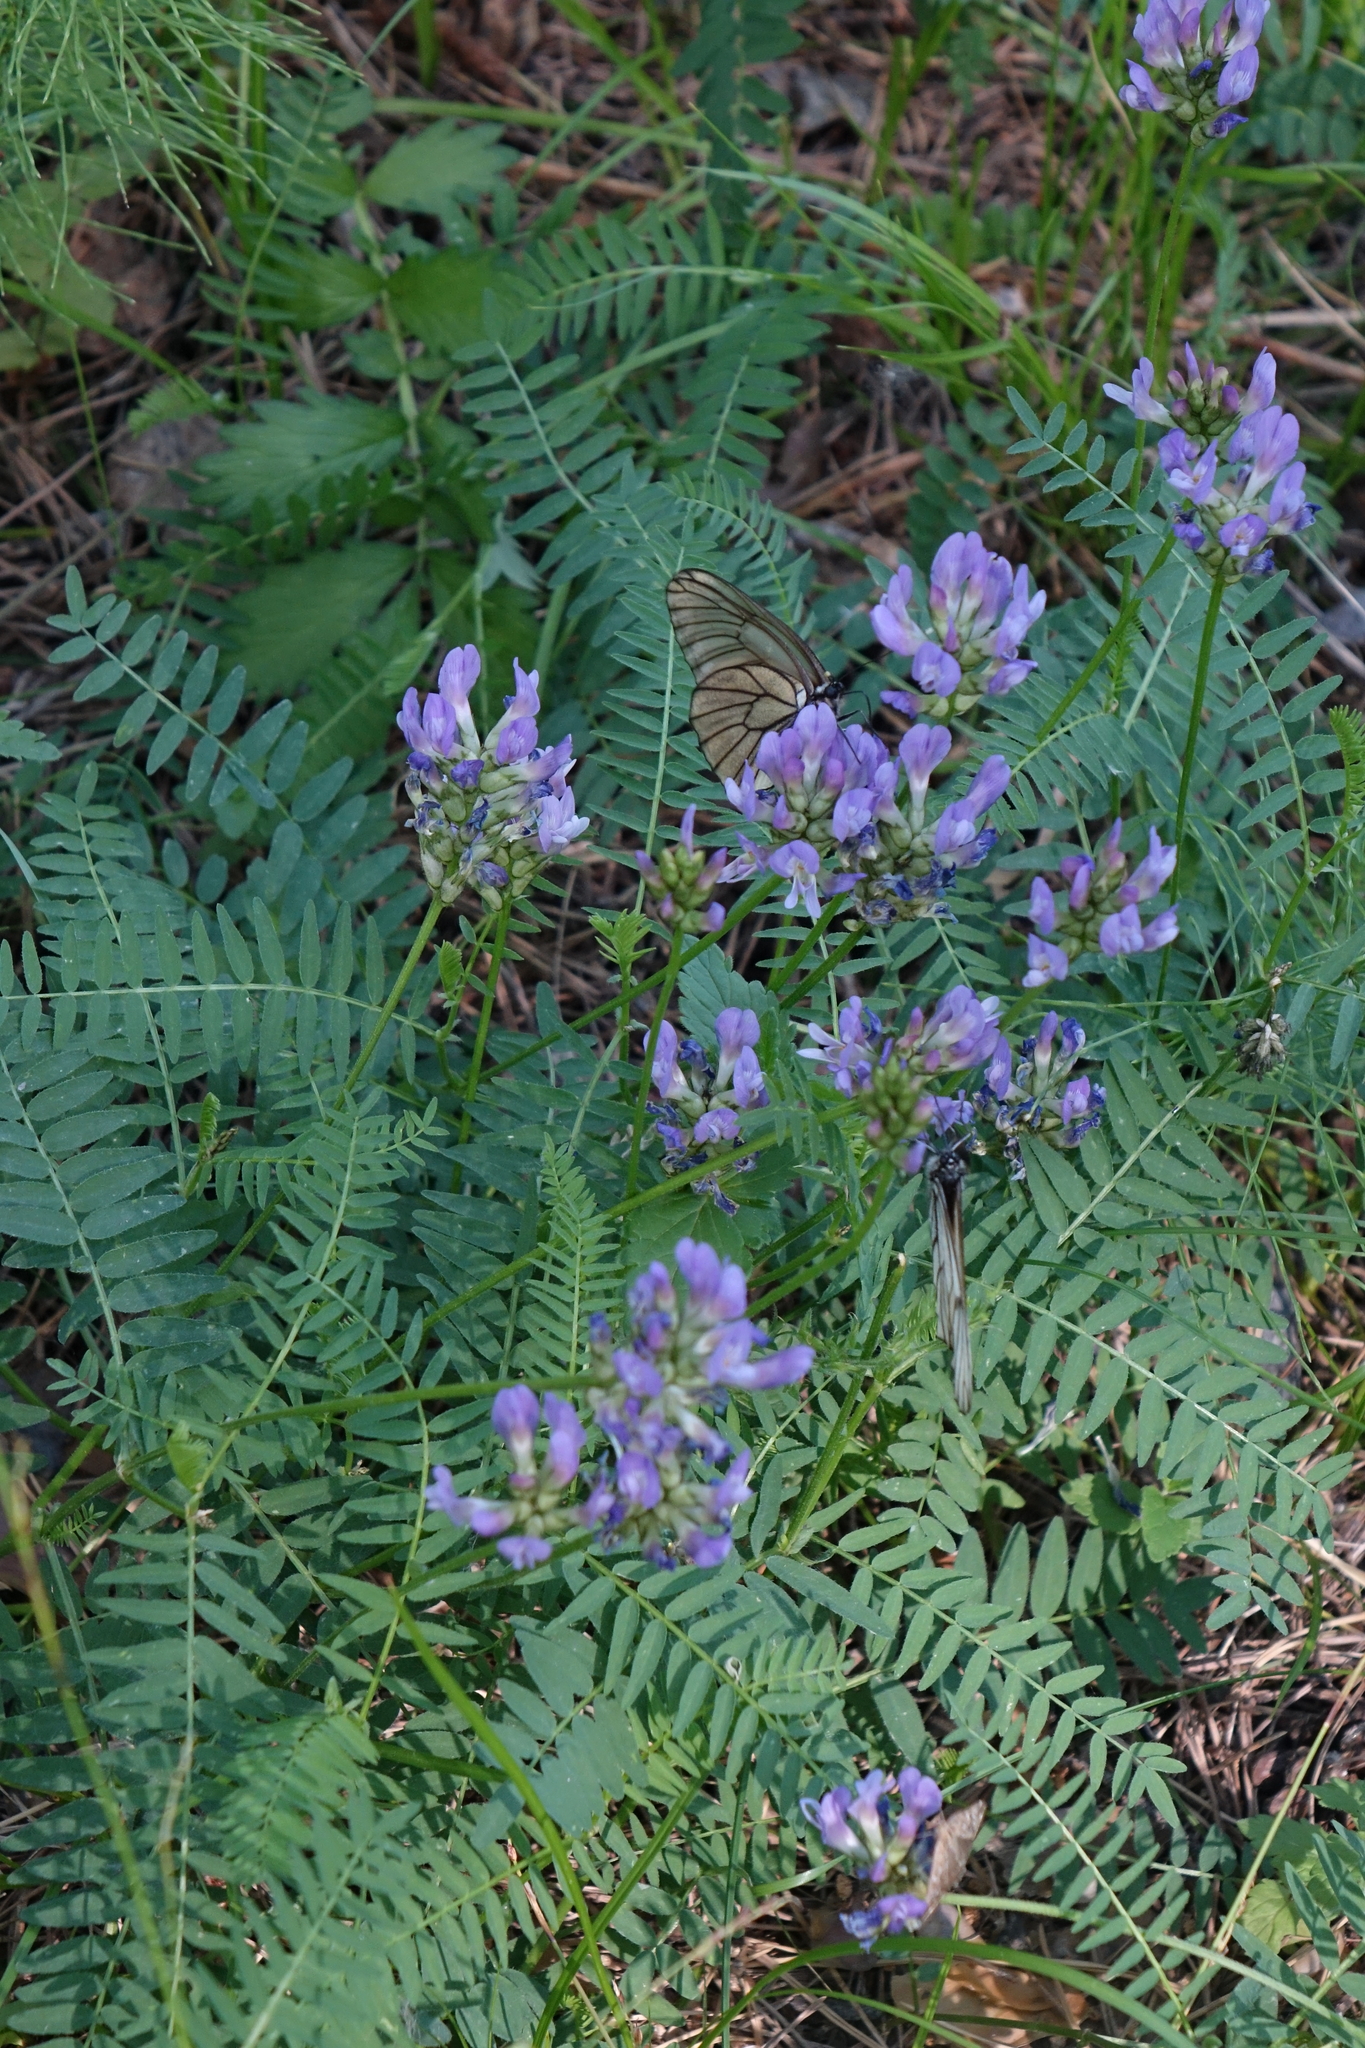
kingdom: Animalia
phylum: Arthropoda
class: Insecta
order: Lepidoptera
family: Pieridae
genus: Aporia
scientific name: Aporia crataegi
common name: Black-veined white
